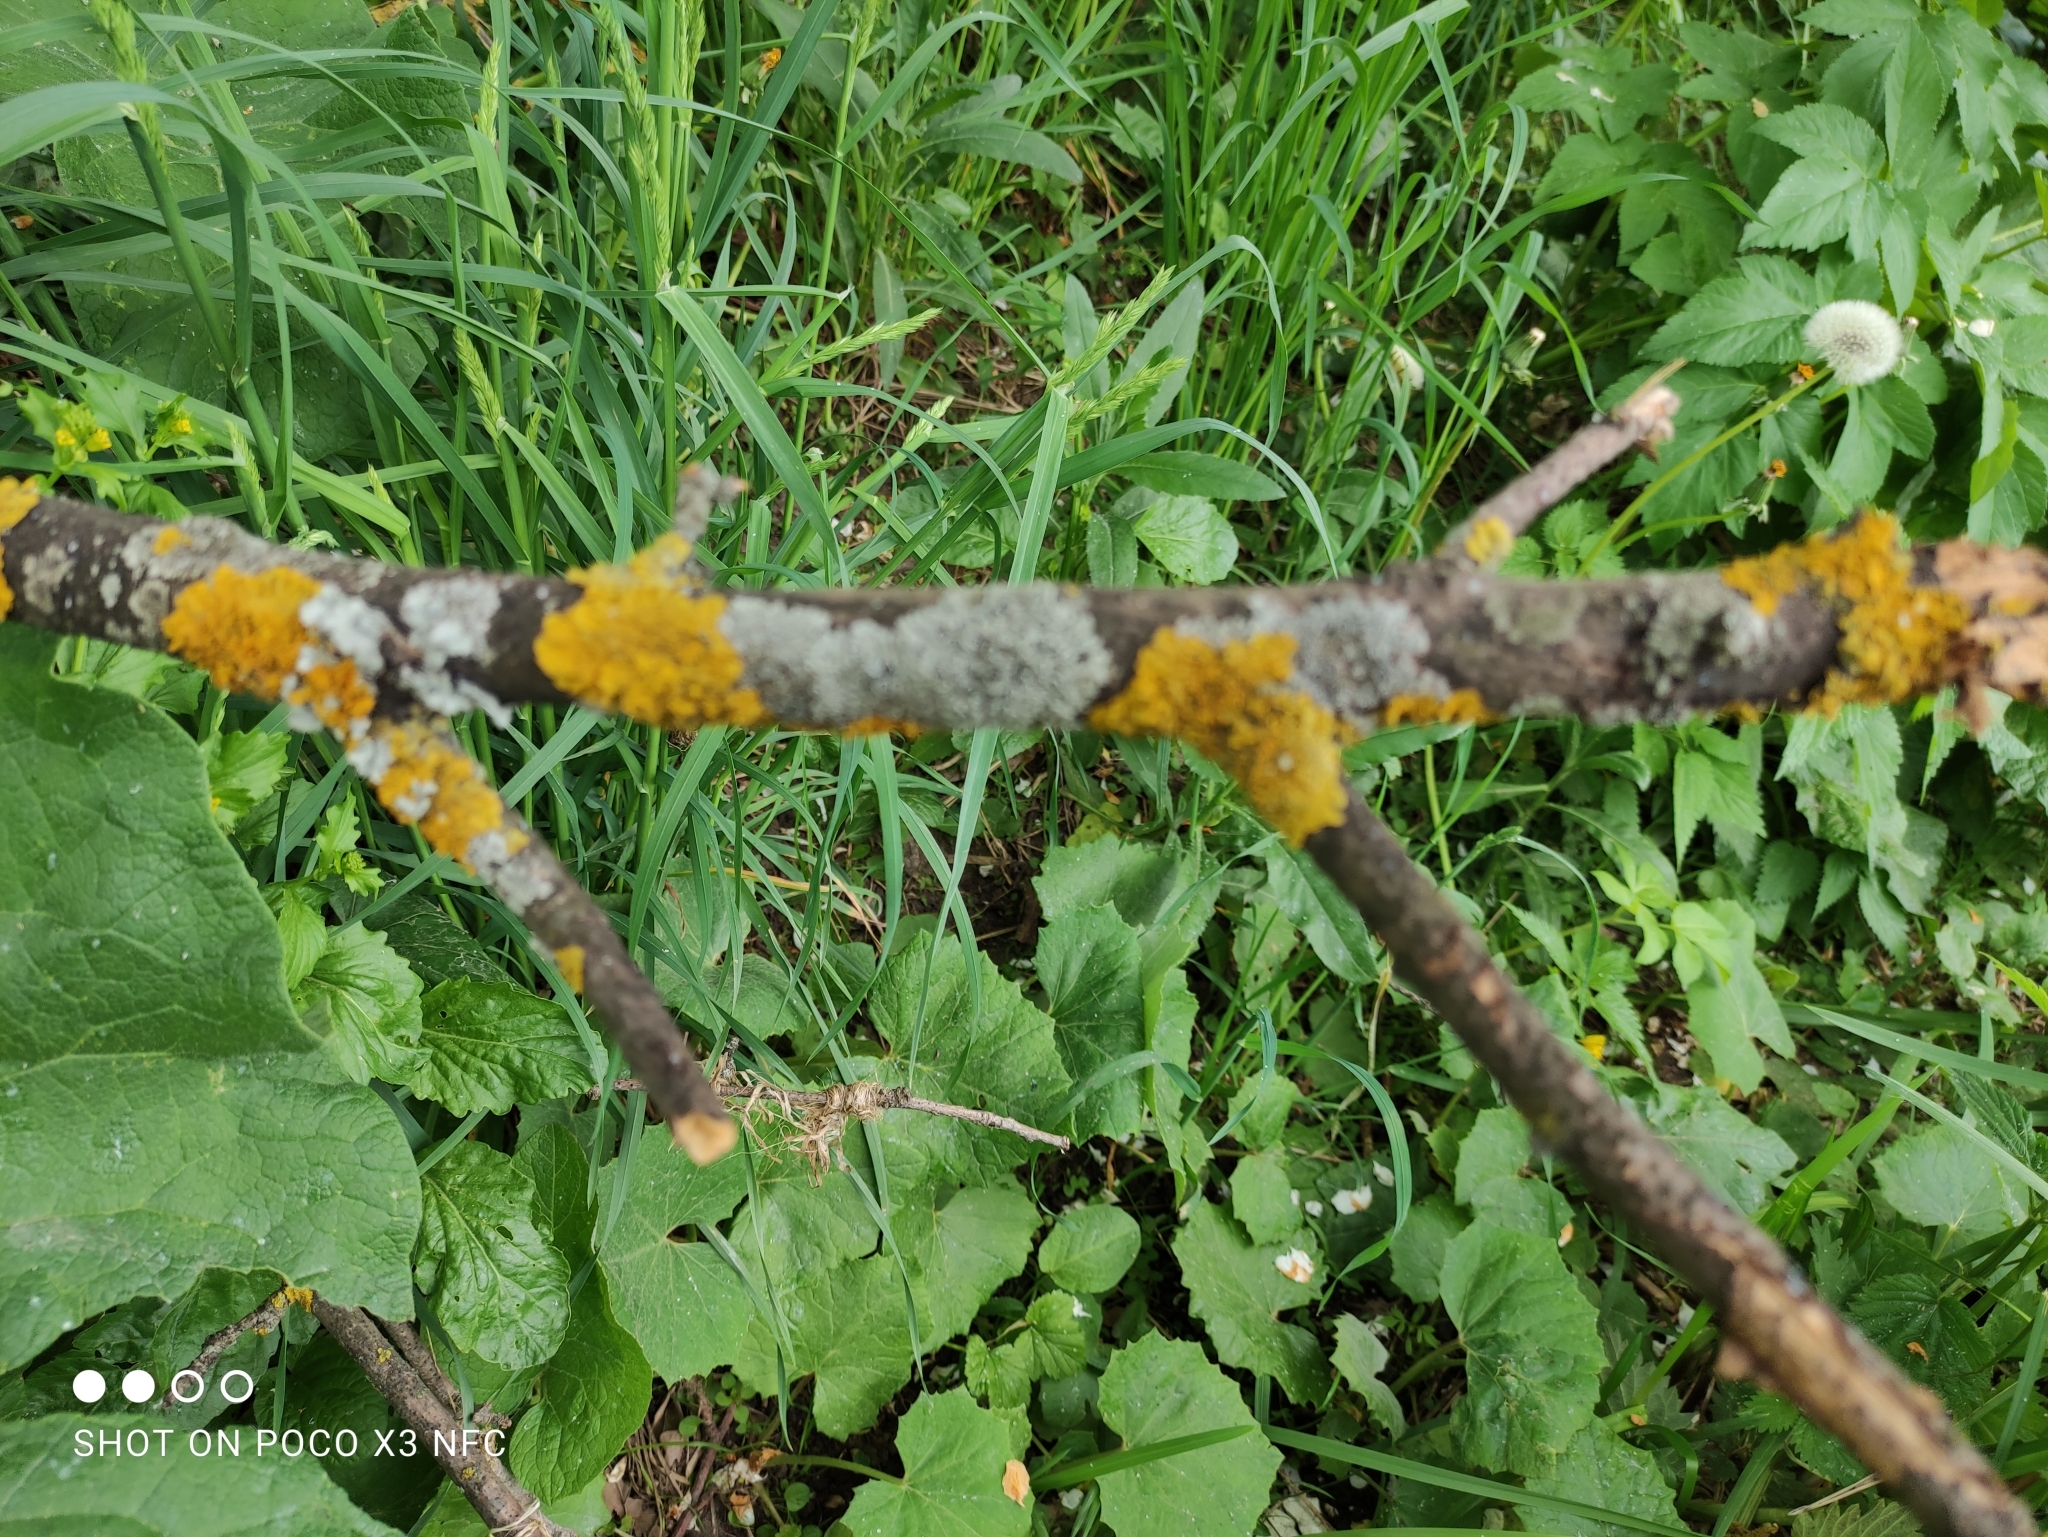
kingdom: Fungi
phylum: Ascomycota
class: Lecanoromycetes
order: Teloschistales
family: Teloschistaceae
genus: Xanthoria
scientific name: Xanthoria parietina
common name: Common orange lichen
